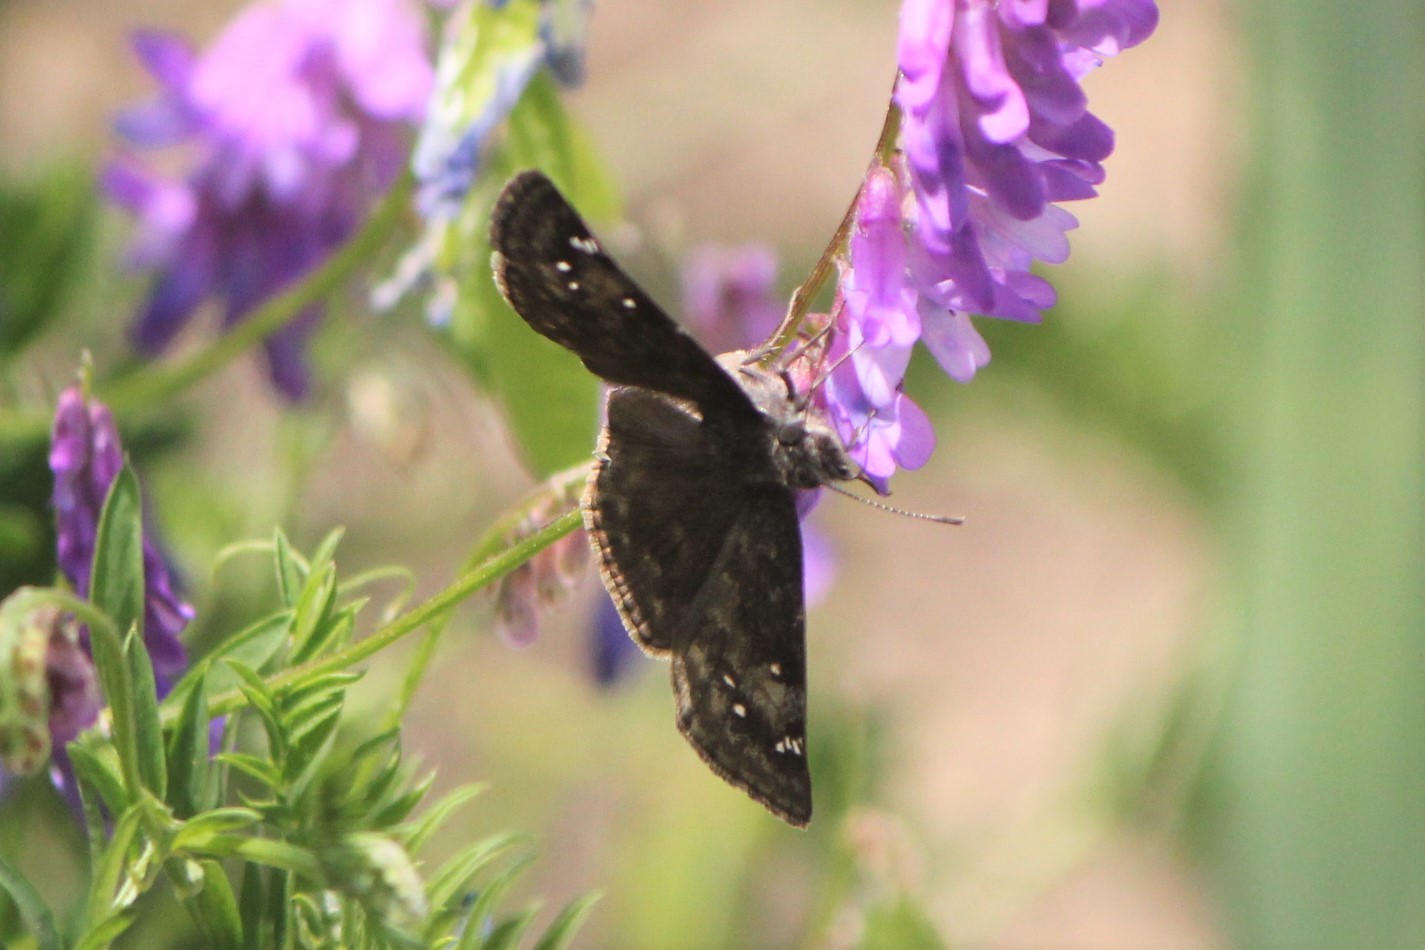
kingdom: Animalia
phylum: Arthropoda
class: Insecta
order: Lepidoptera
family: Hesperiidae
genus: Erynnis
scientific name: Erynnis baptisiae
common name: Wild indigo duskywing
